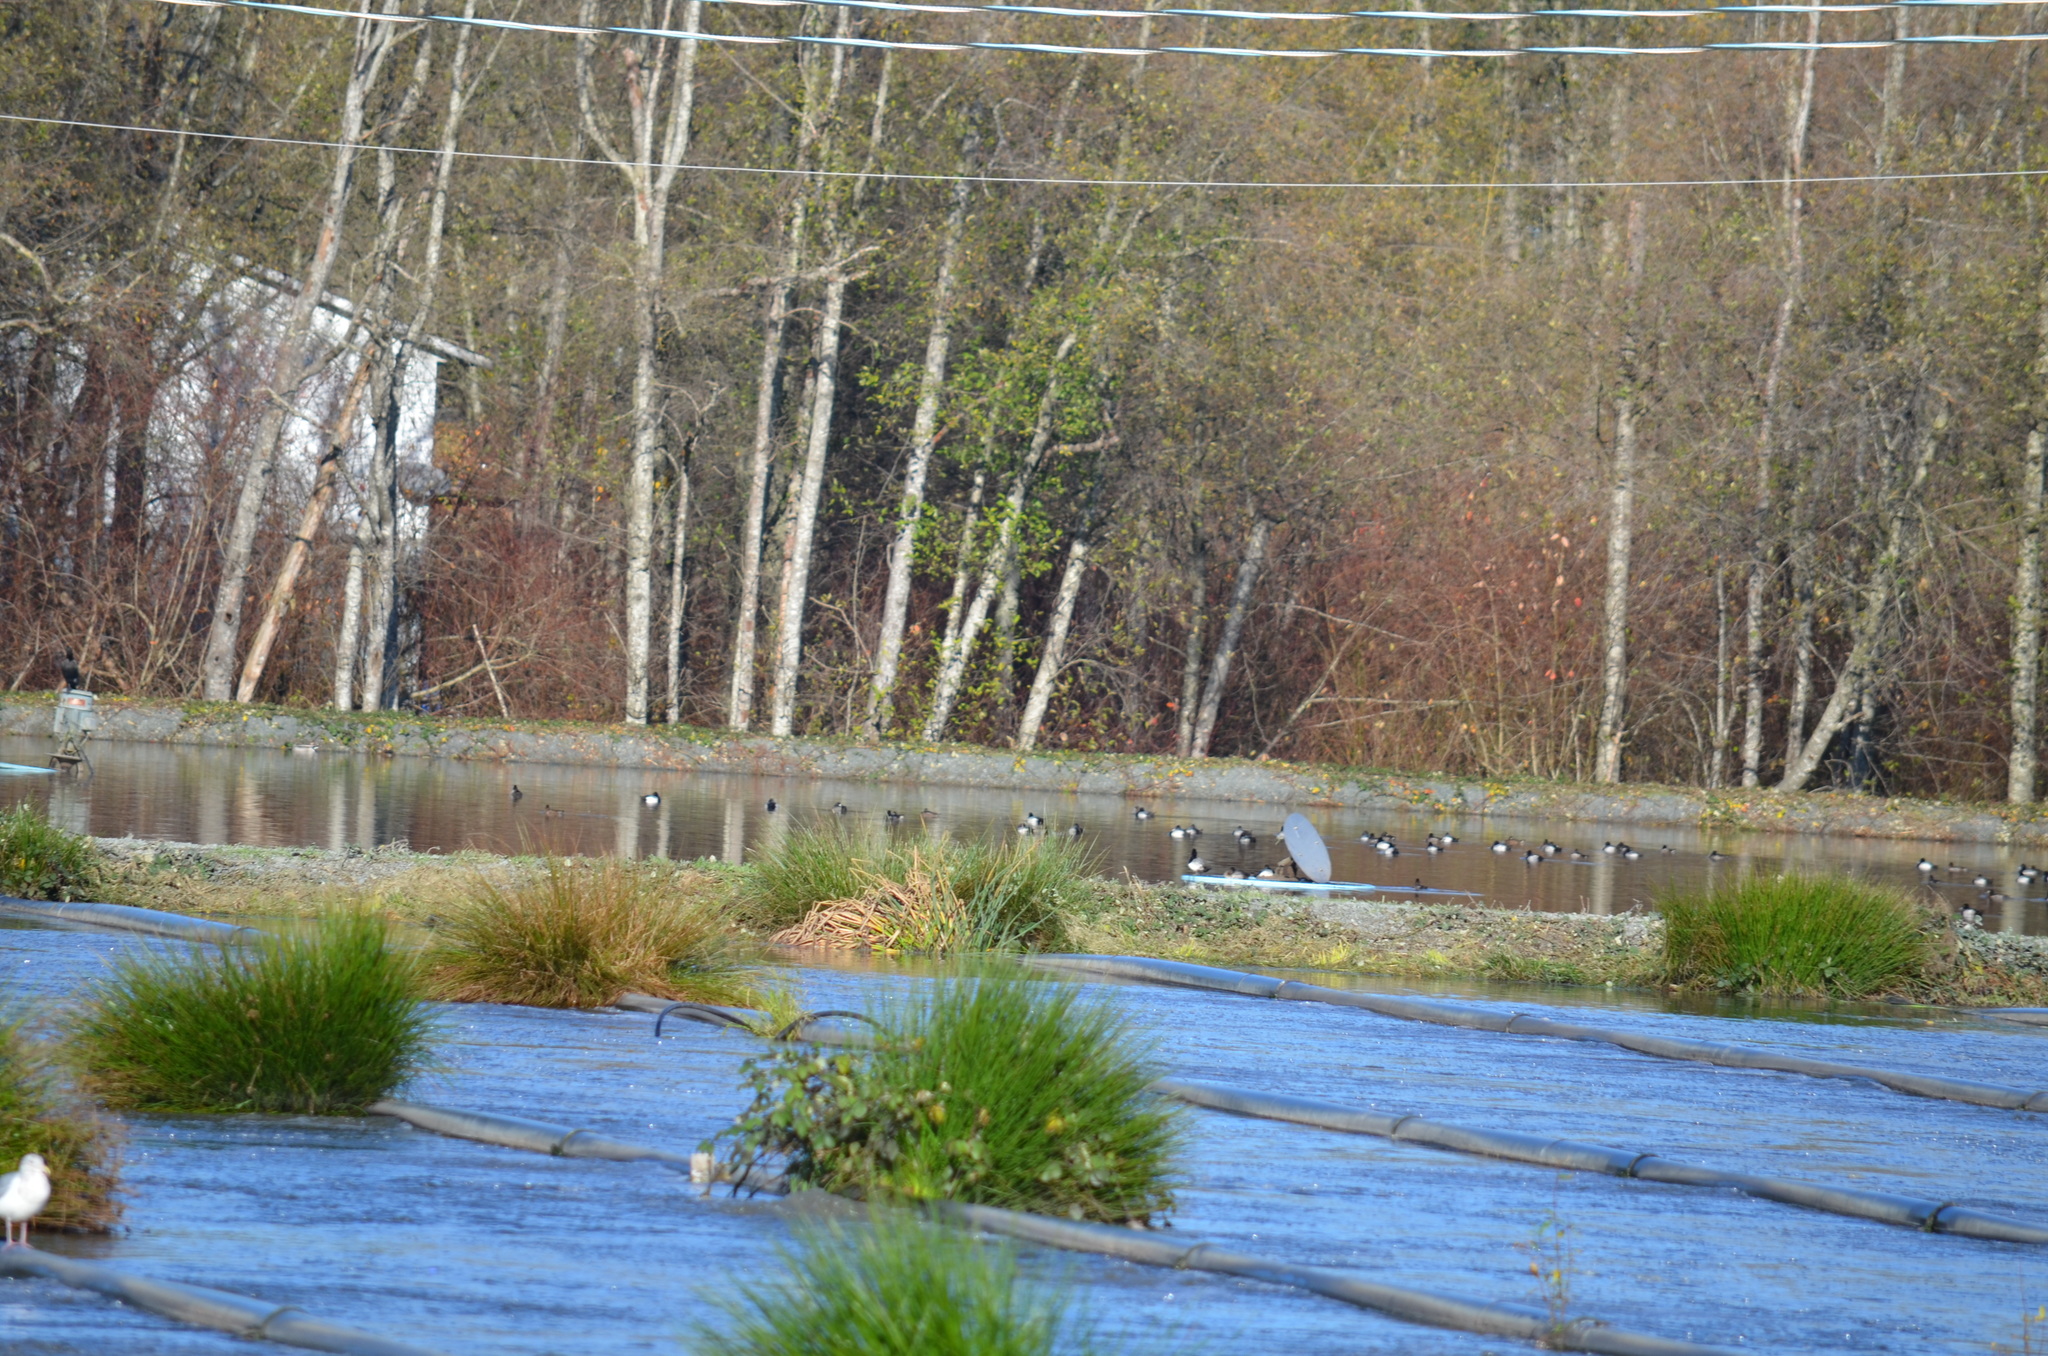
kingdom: Animalia
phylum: Chordata
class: Aves
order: Anseriformes
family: Anatidae
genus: Aythya
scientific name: Aythya affinis
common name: Lesser scaup
